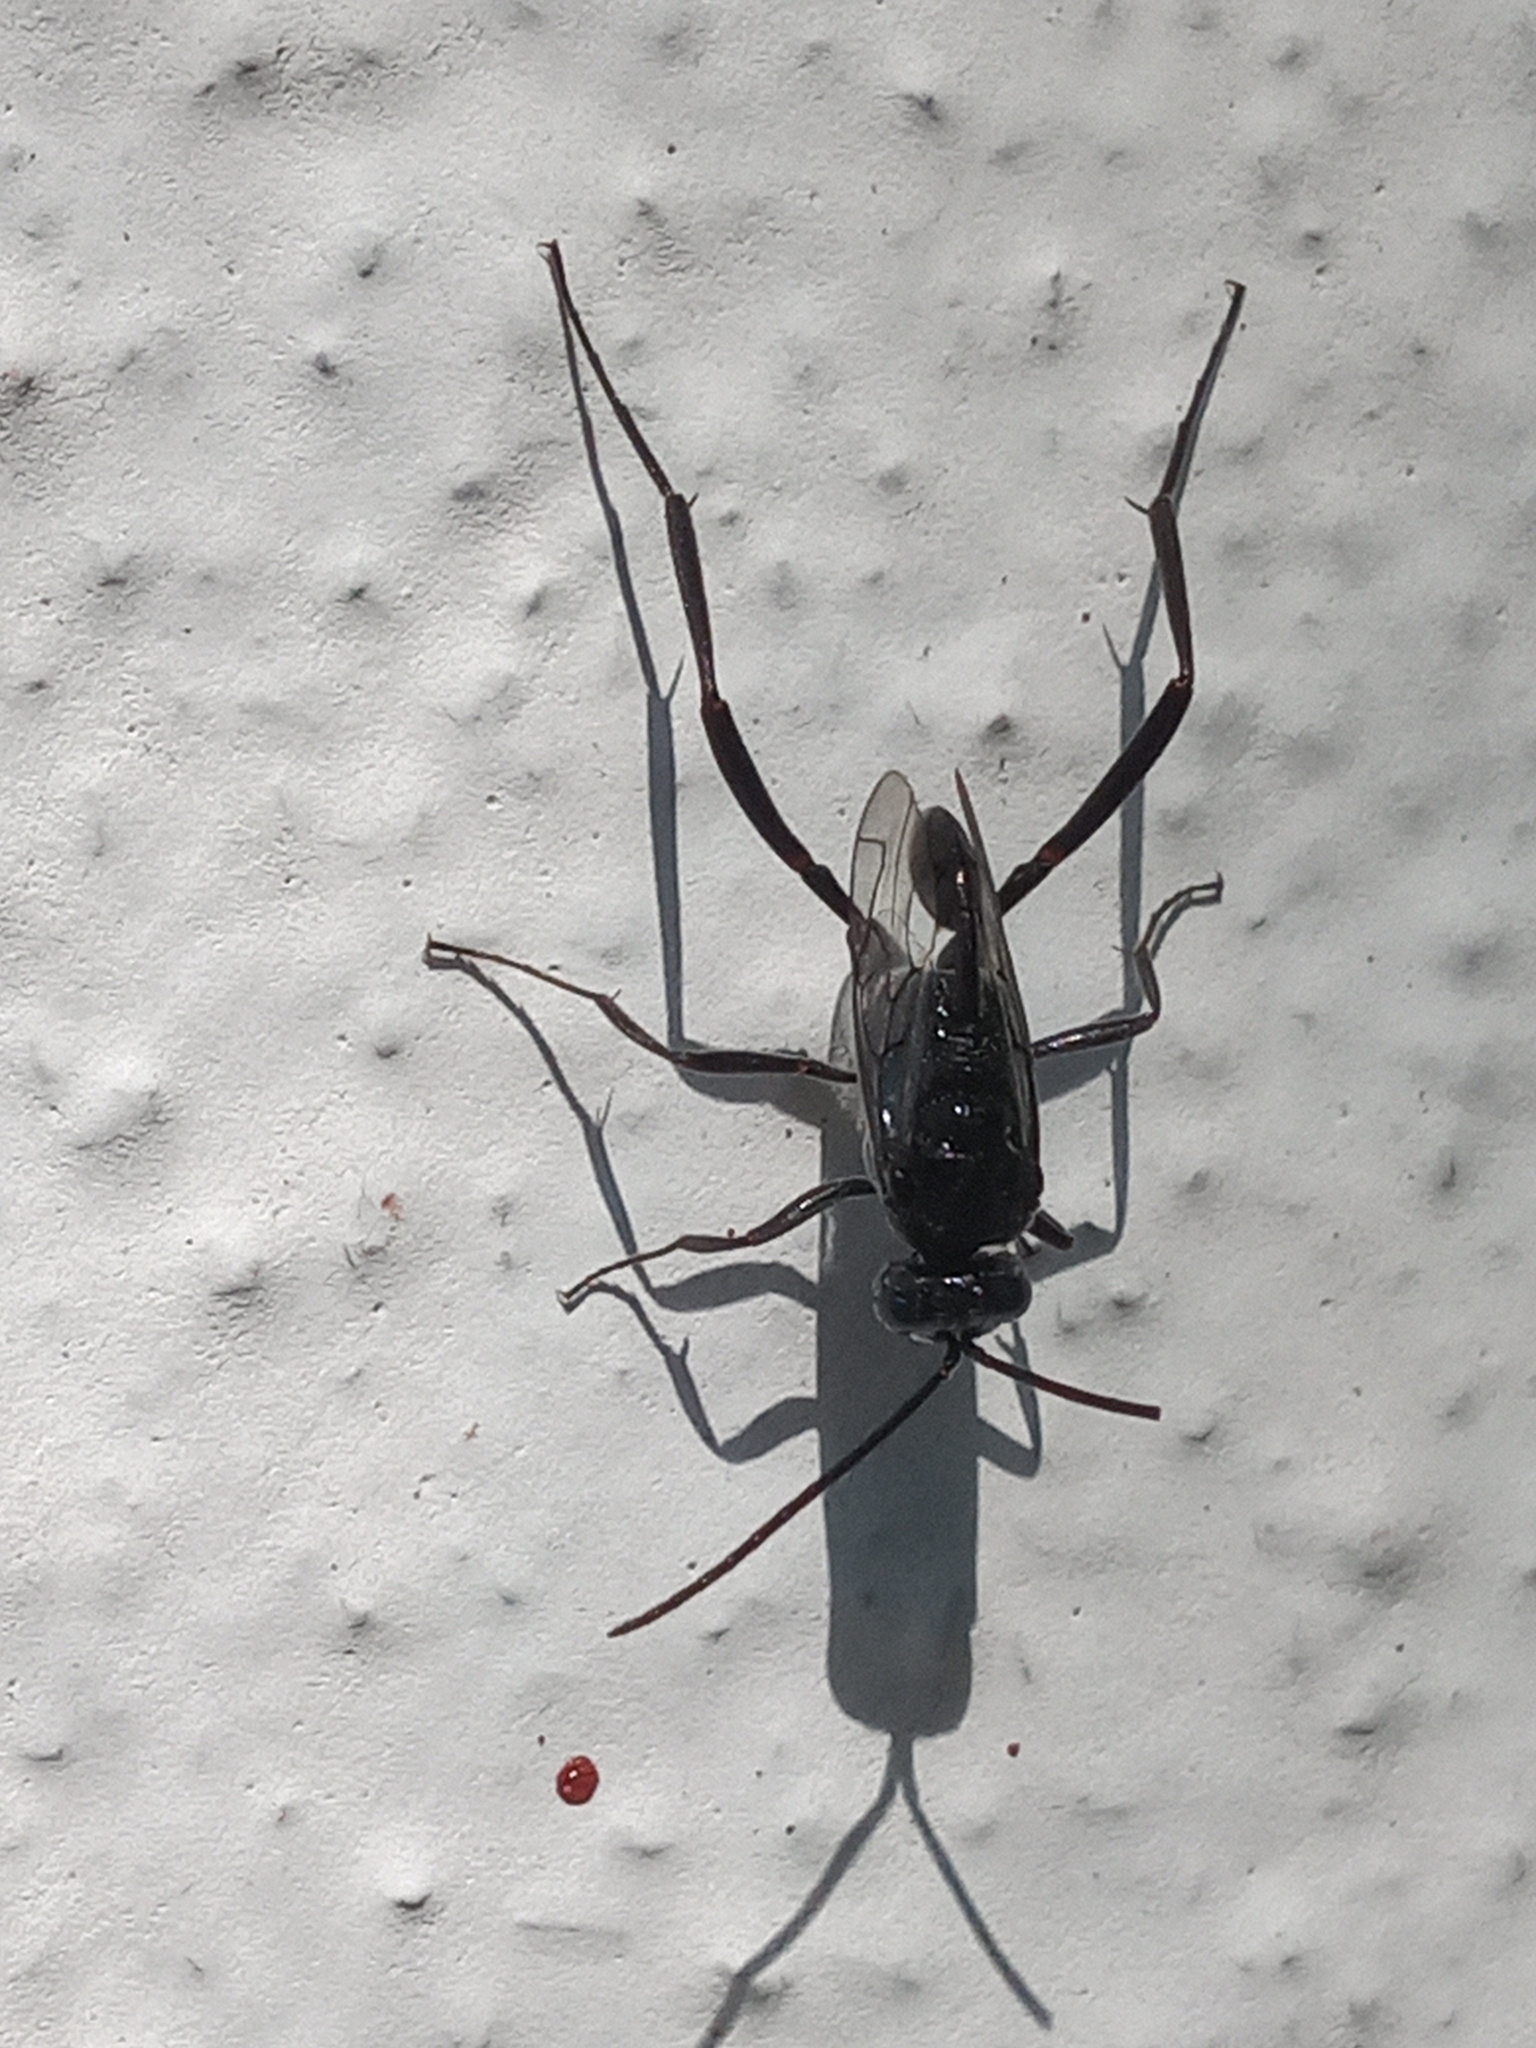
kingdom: Animalia
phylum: Arthropoda
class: Insecta
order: Hymenoptera
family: Evaniidae
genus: Evania
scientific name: Evania appendigaster
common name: Ensign wasp
